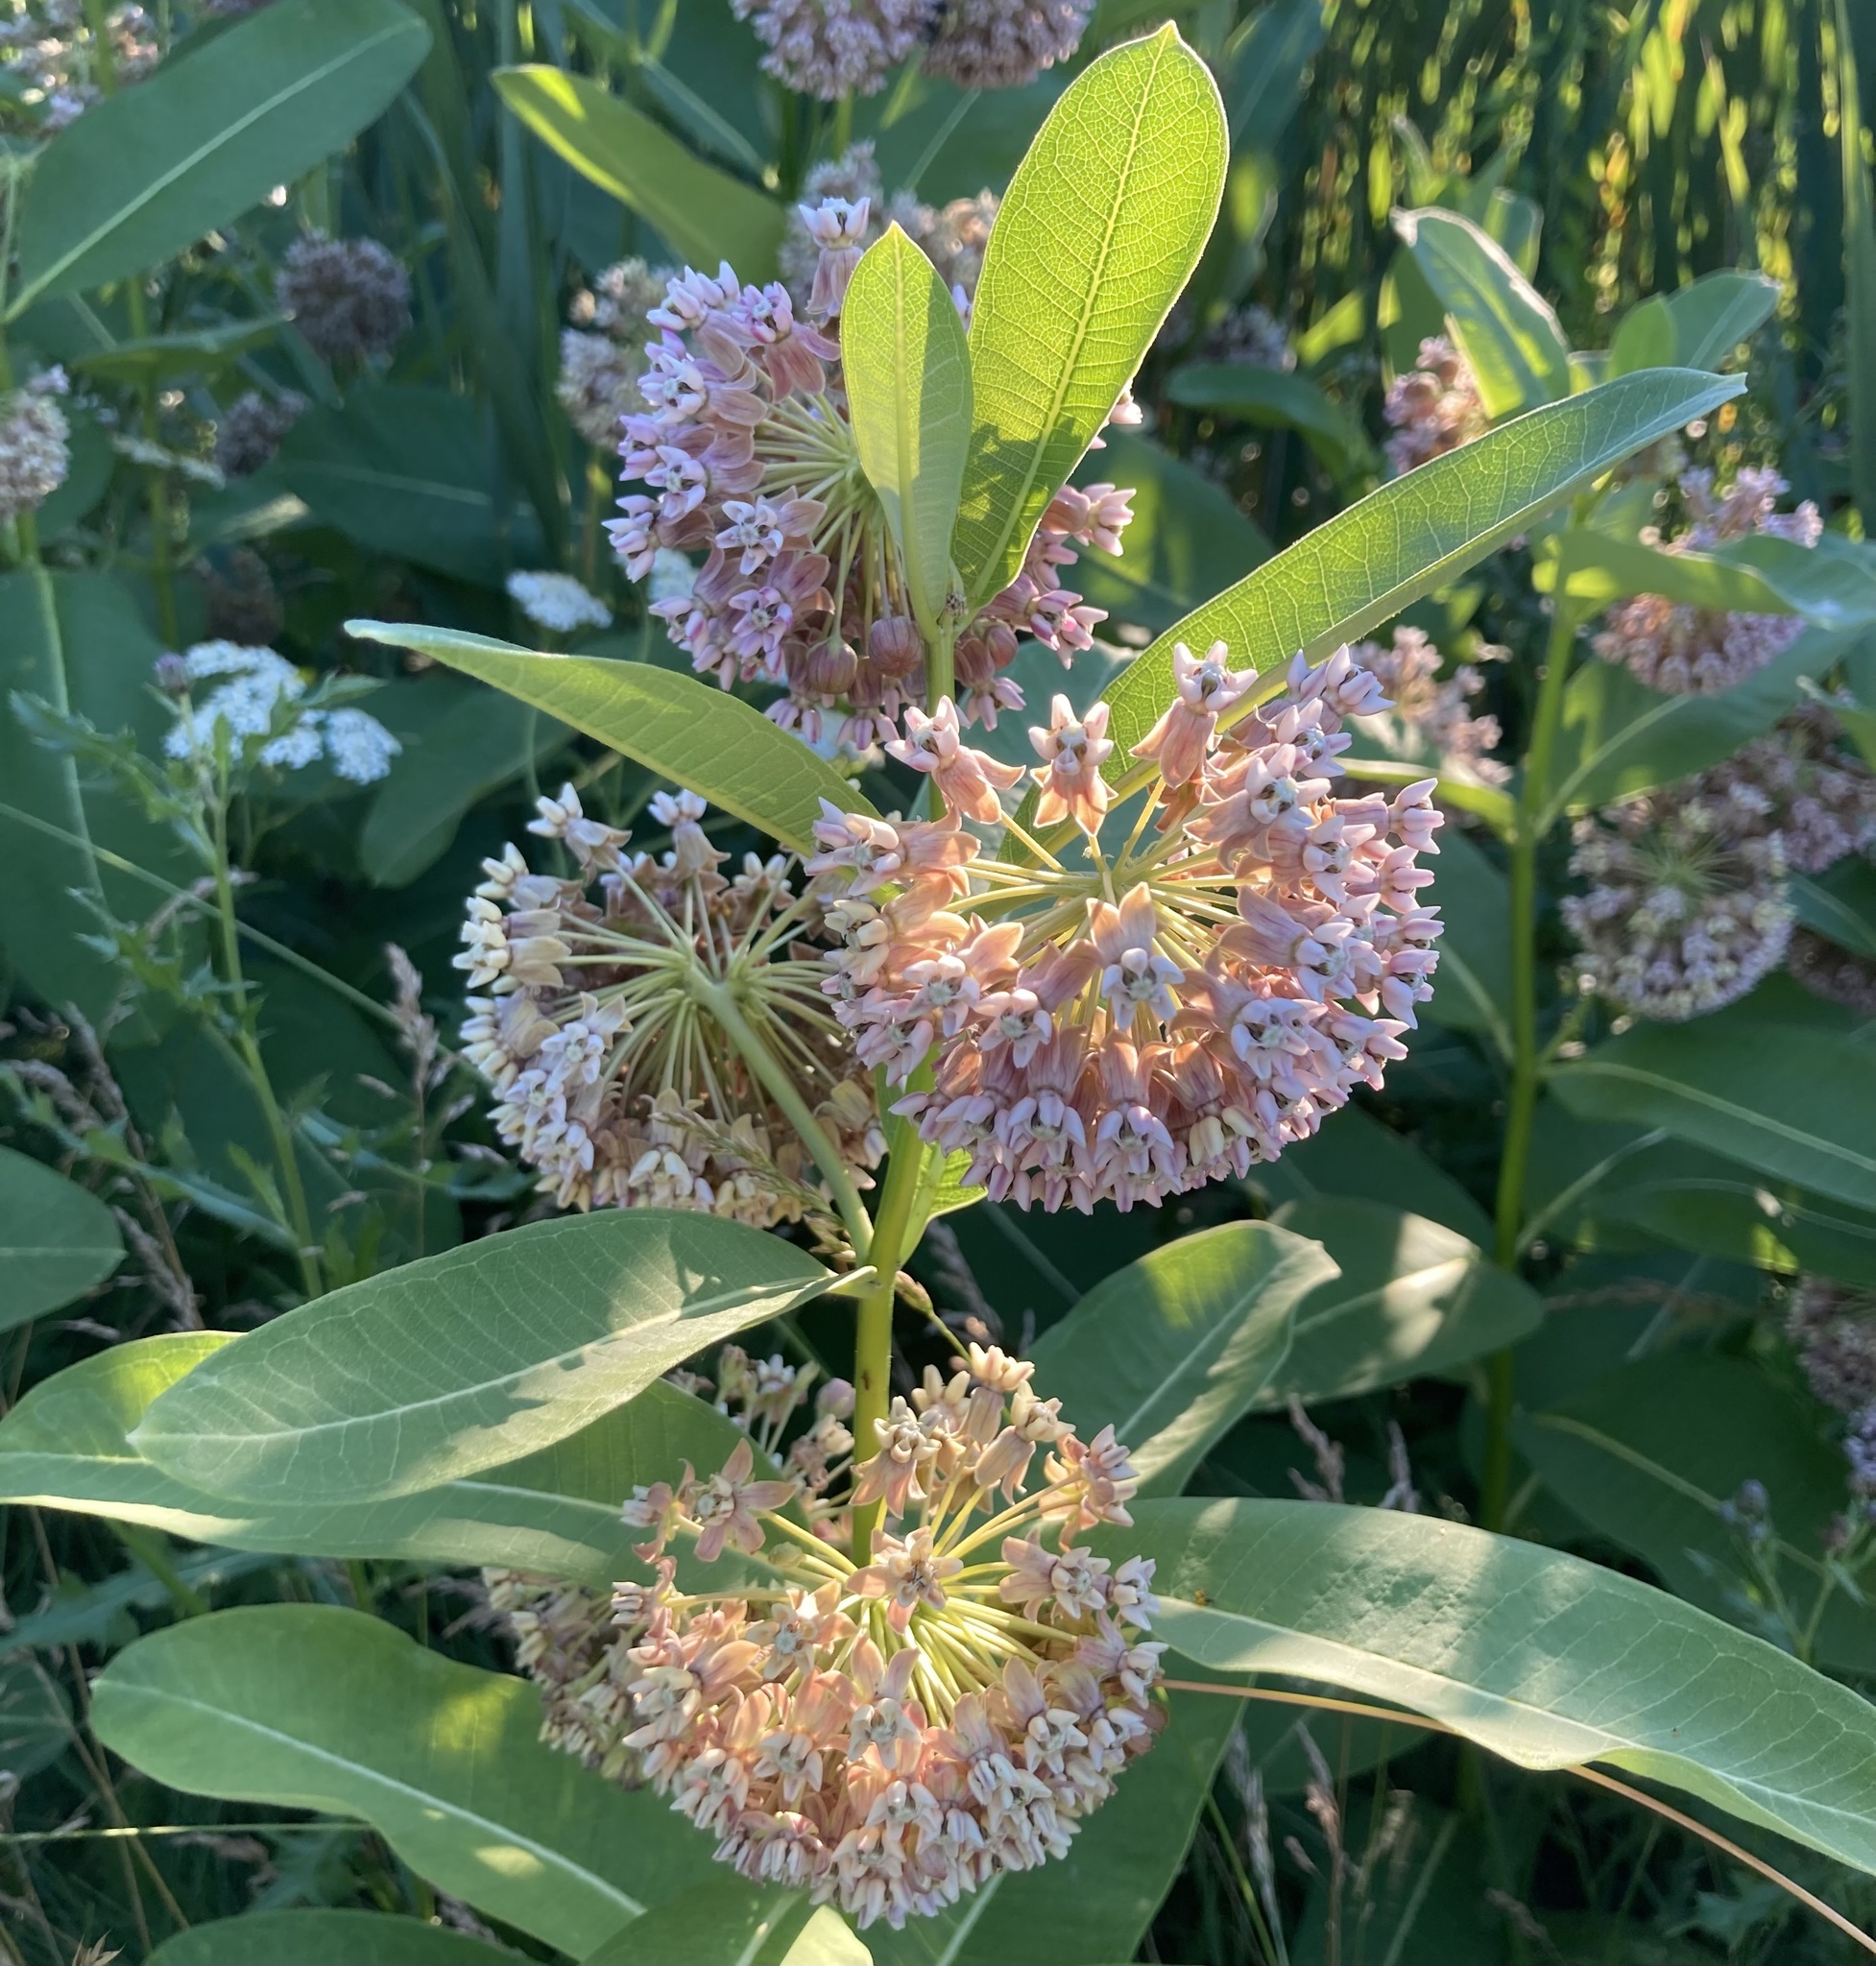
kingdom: Plantae
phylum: Tracheophyta
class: Magnoliopsida
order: Gentianales
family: Apocynaceae
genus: Asclepias
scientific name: Asclepias syriaca
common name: Common milkweed
